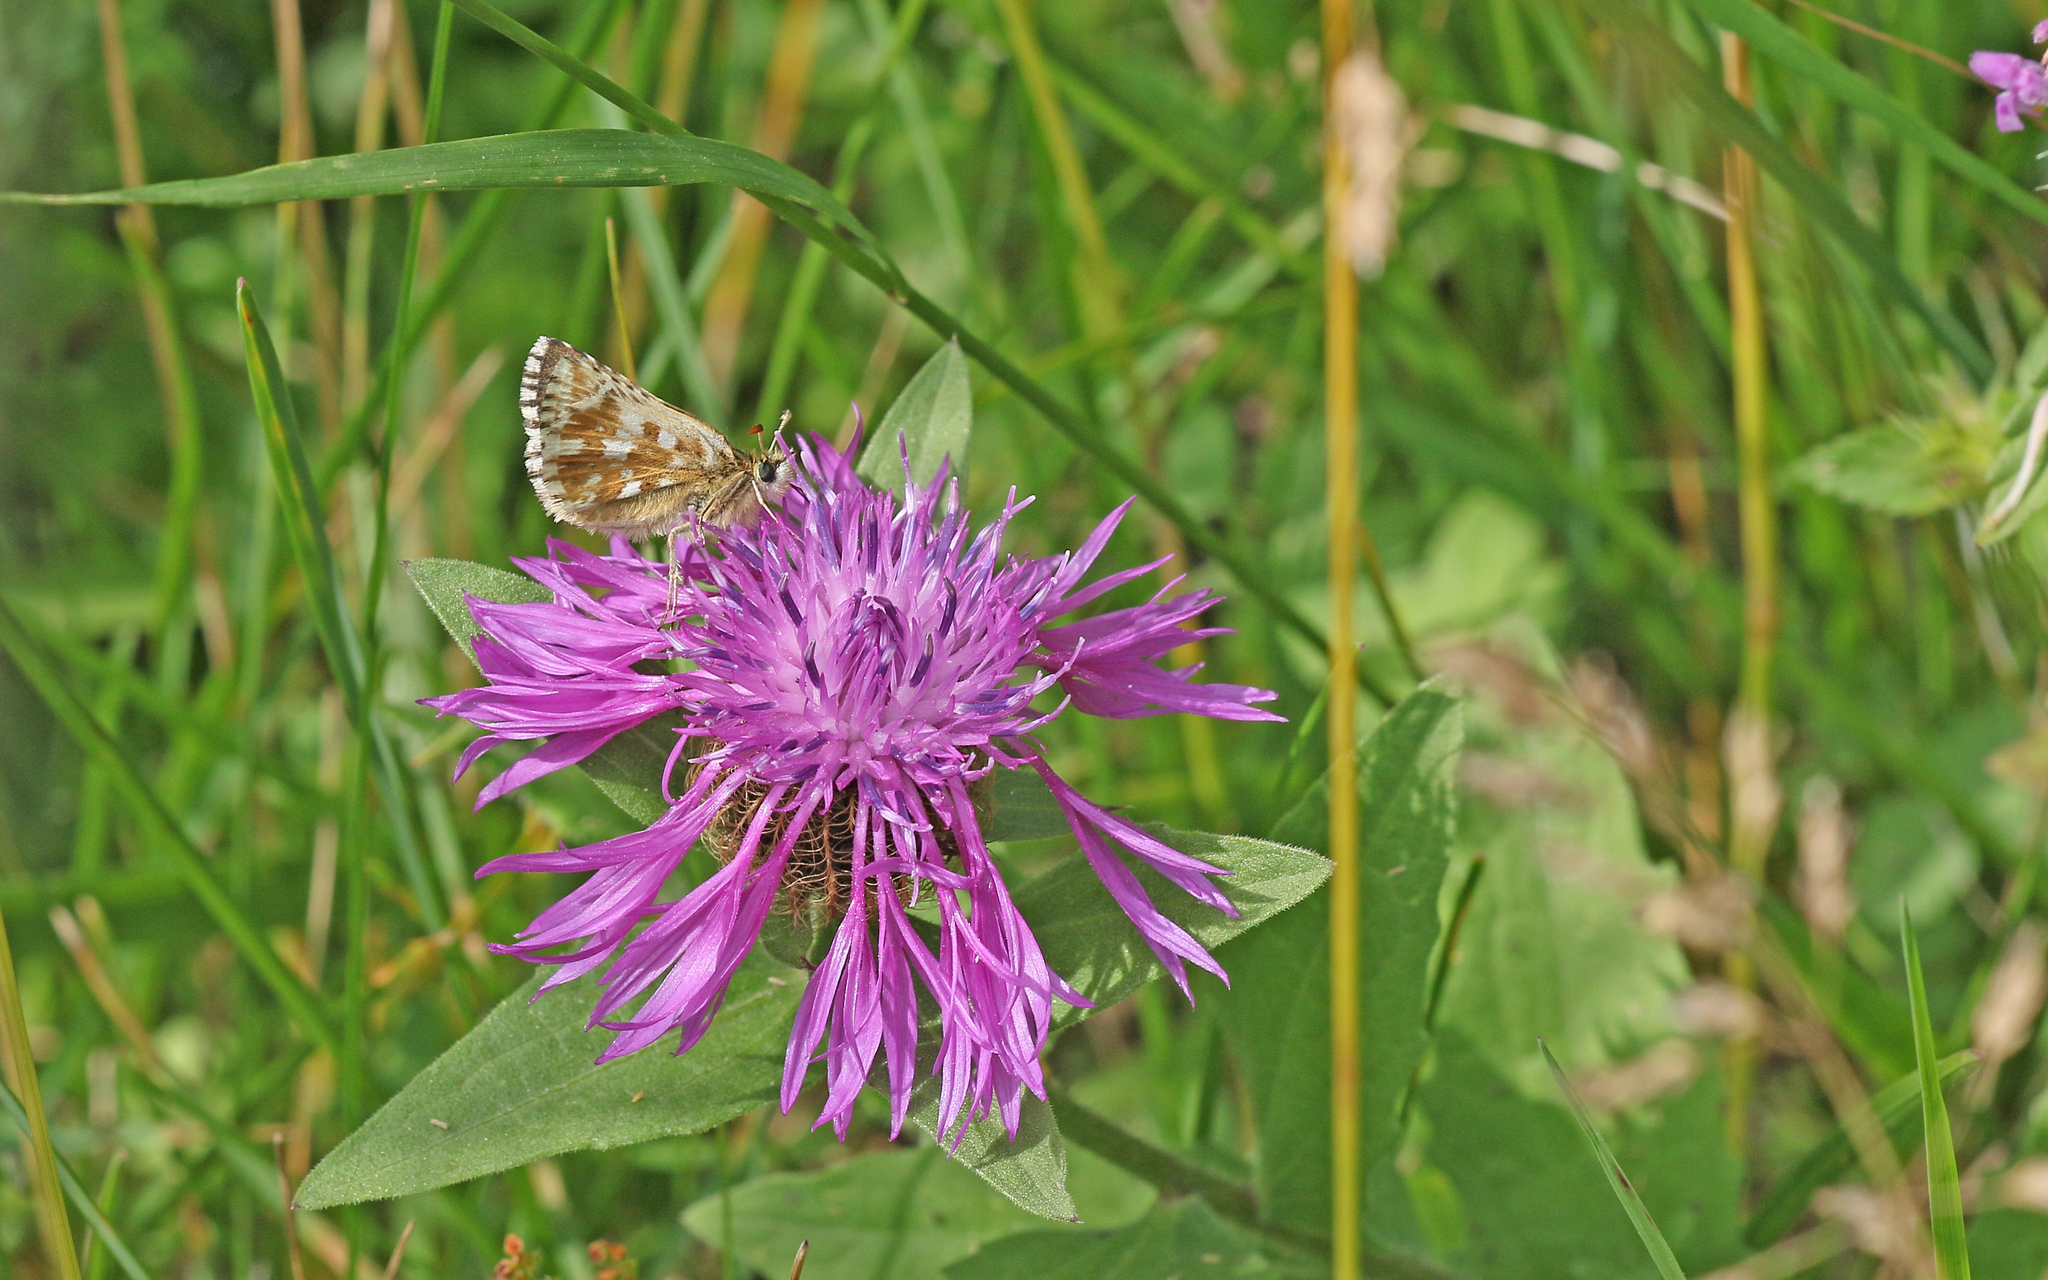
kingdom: Animalia
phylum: Arthropoda
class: Insecta
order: Lepidoptera
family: Hesperiidae
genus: Pyrgus
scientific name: Pyrgus carlinae
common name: Carline skipper
